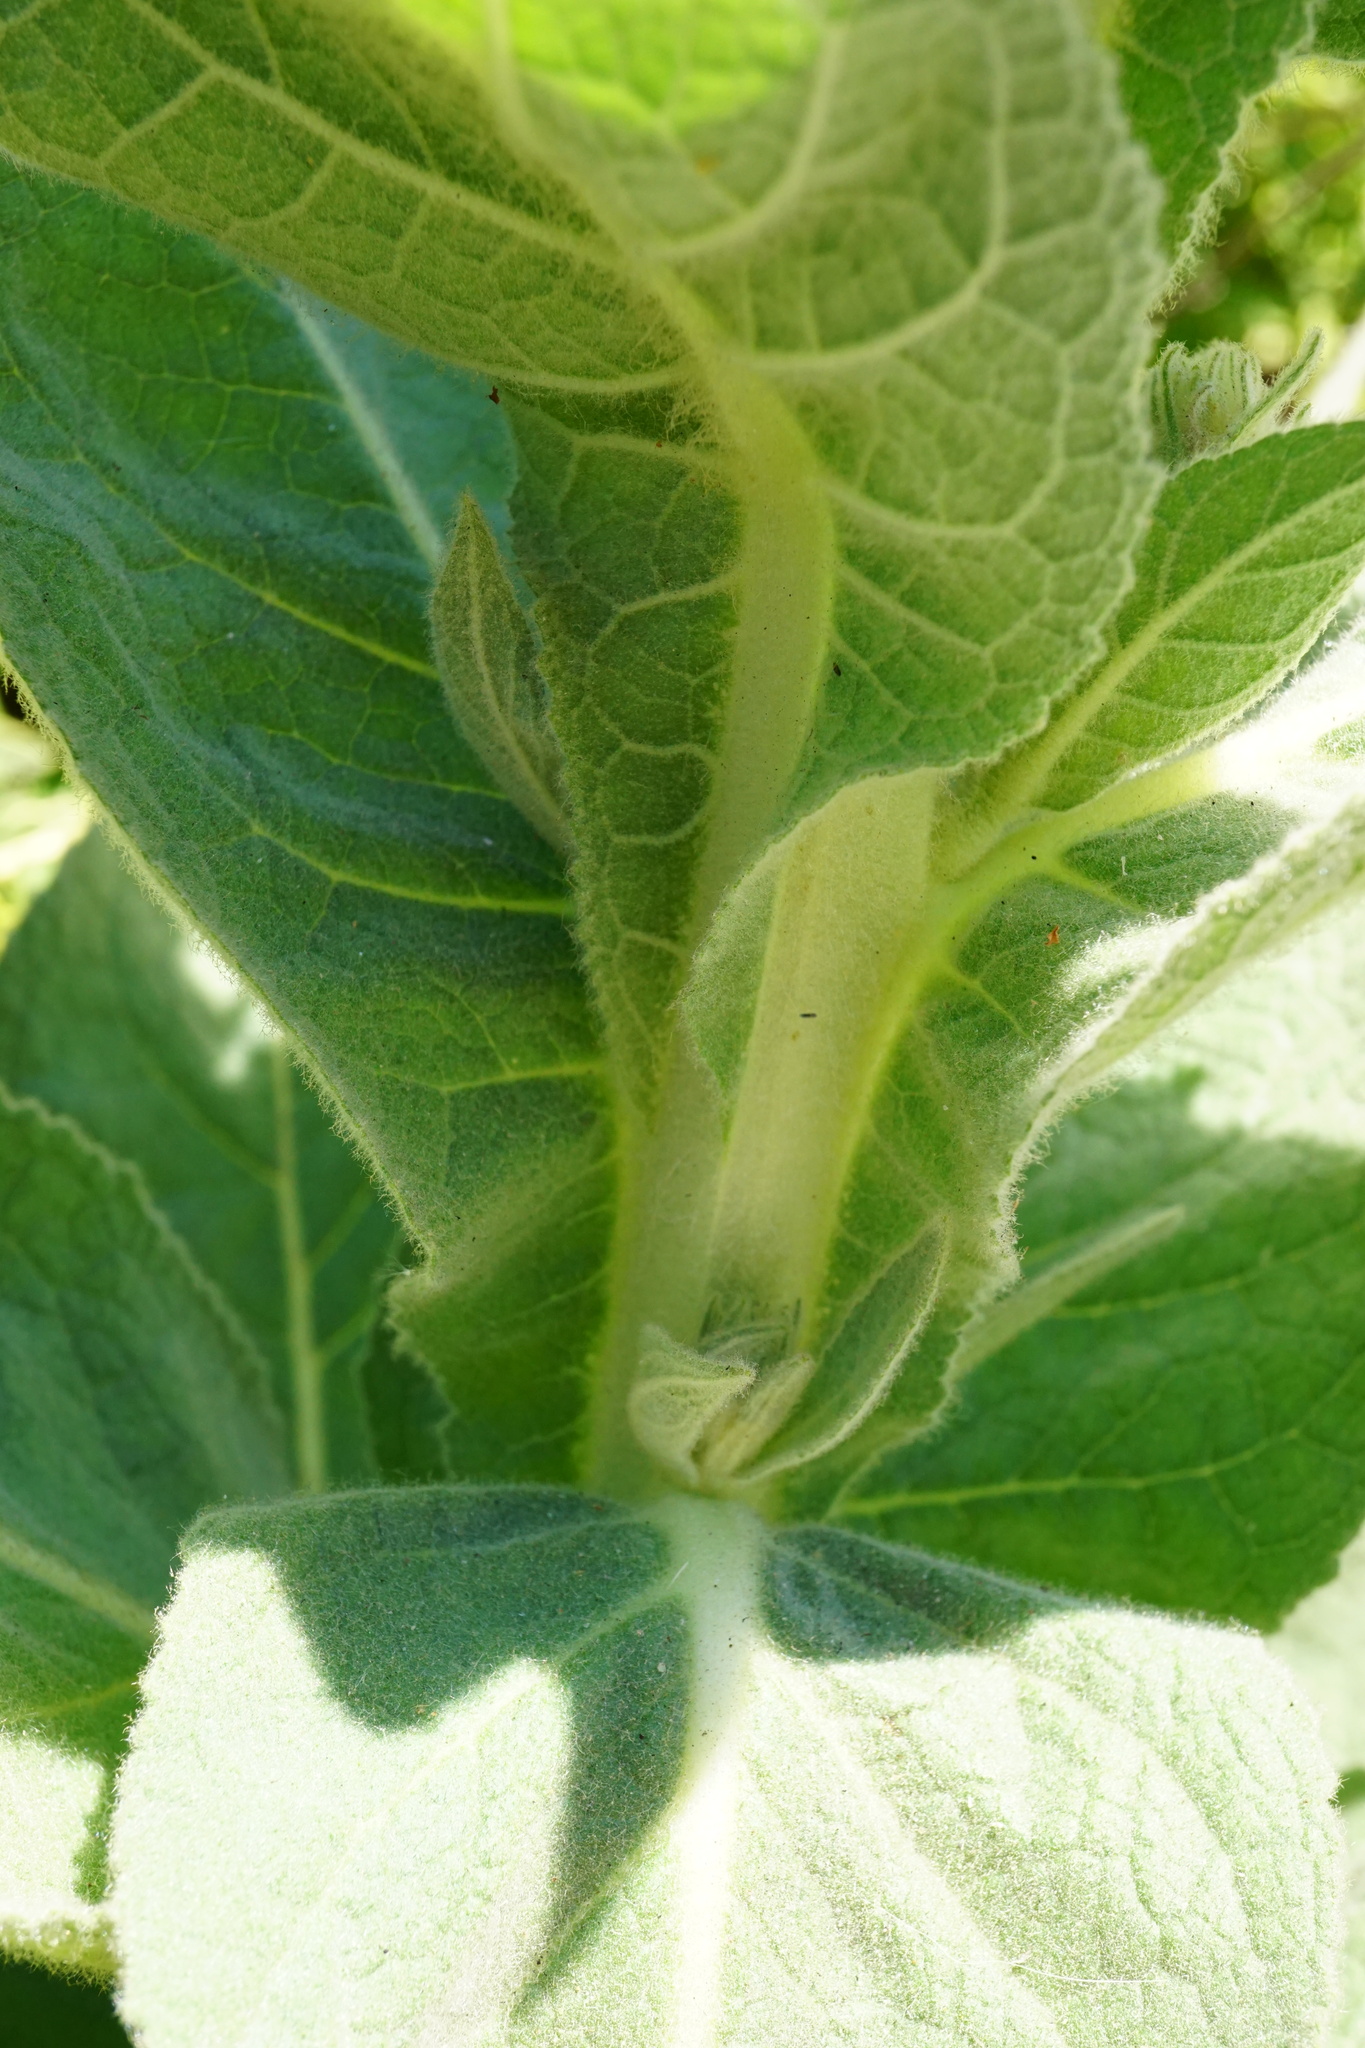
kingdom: Plantae
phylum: Tracheophyta
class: Magnoliopsida
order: Lamiales
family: Scrophulariaceae
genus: Verbascum
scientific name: Verbascum densiflorum
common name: Dense-flowered mullein
